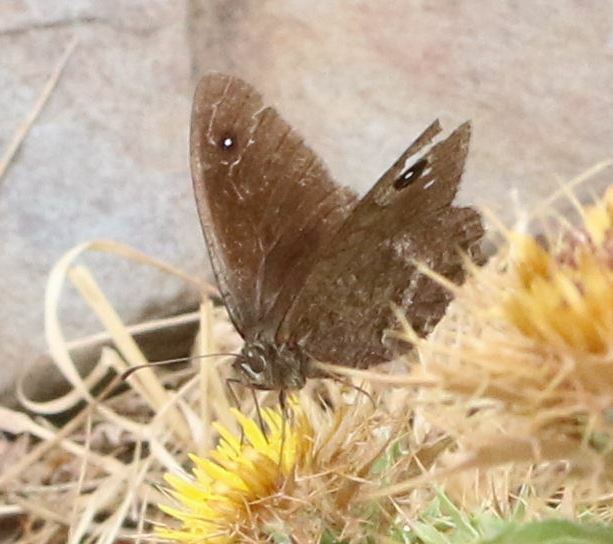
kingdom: Animalia
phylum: Arthropoda
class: Insecta
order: Lepidoptera
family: Nymphalidae
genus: Satyrus
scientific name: Satyrus actaea
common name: Black satyr
